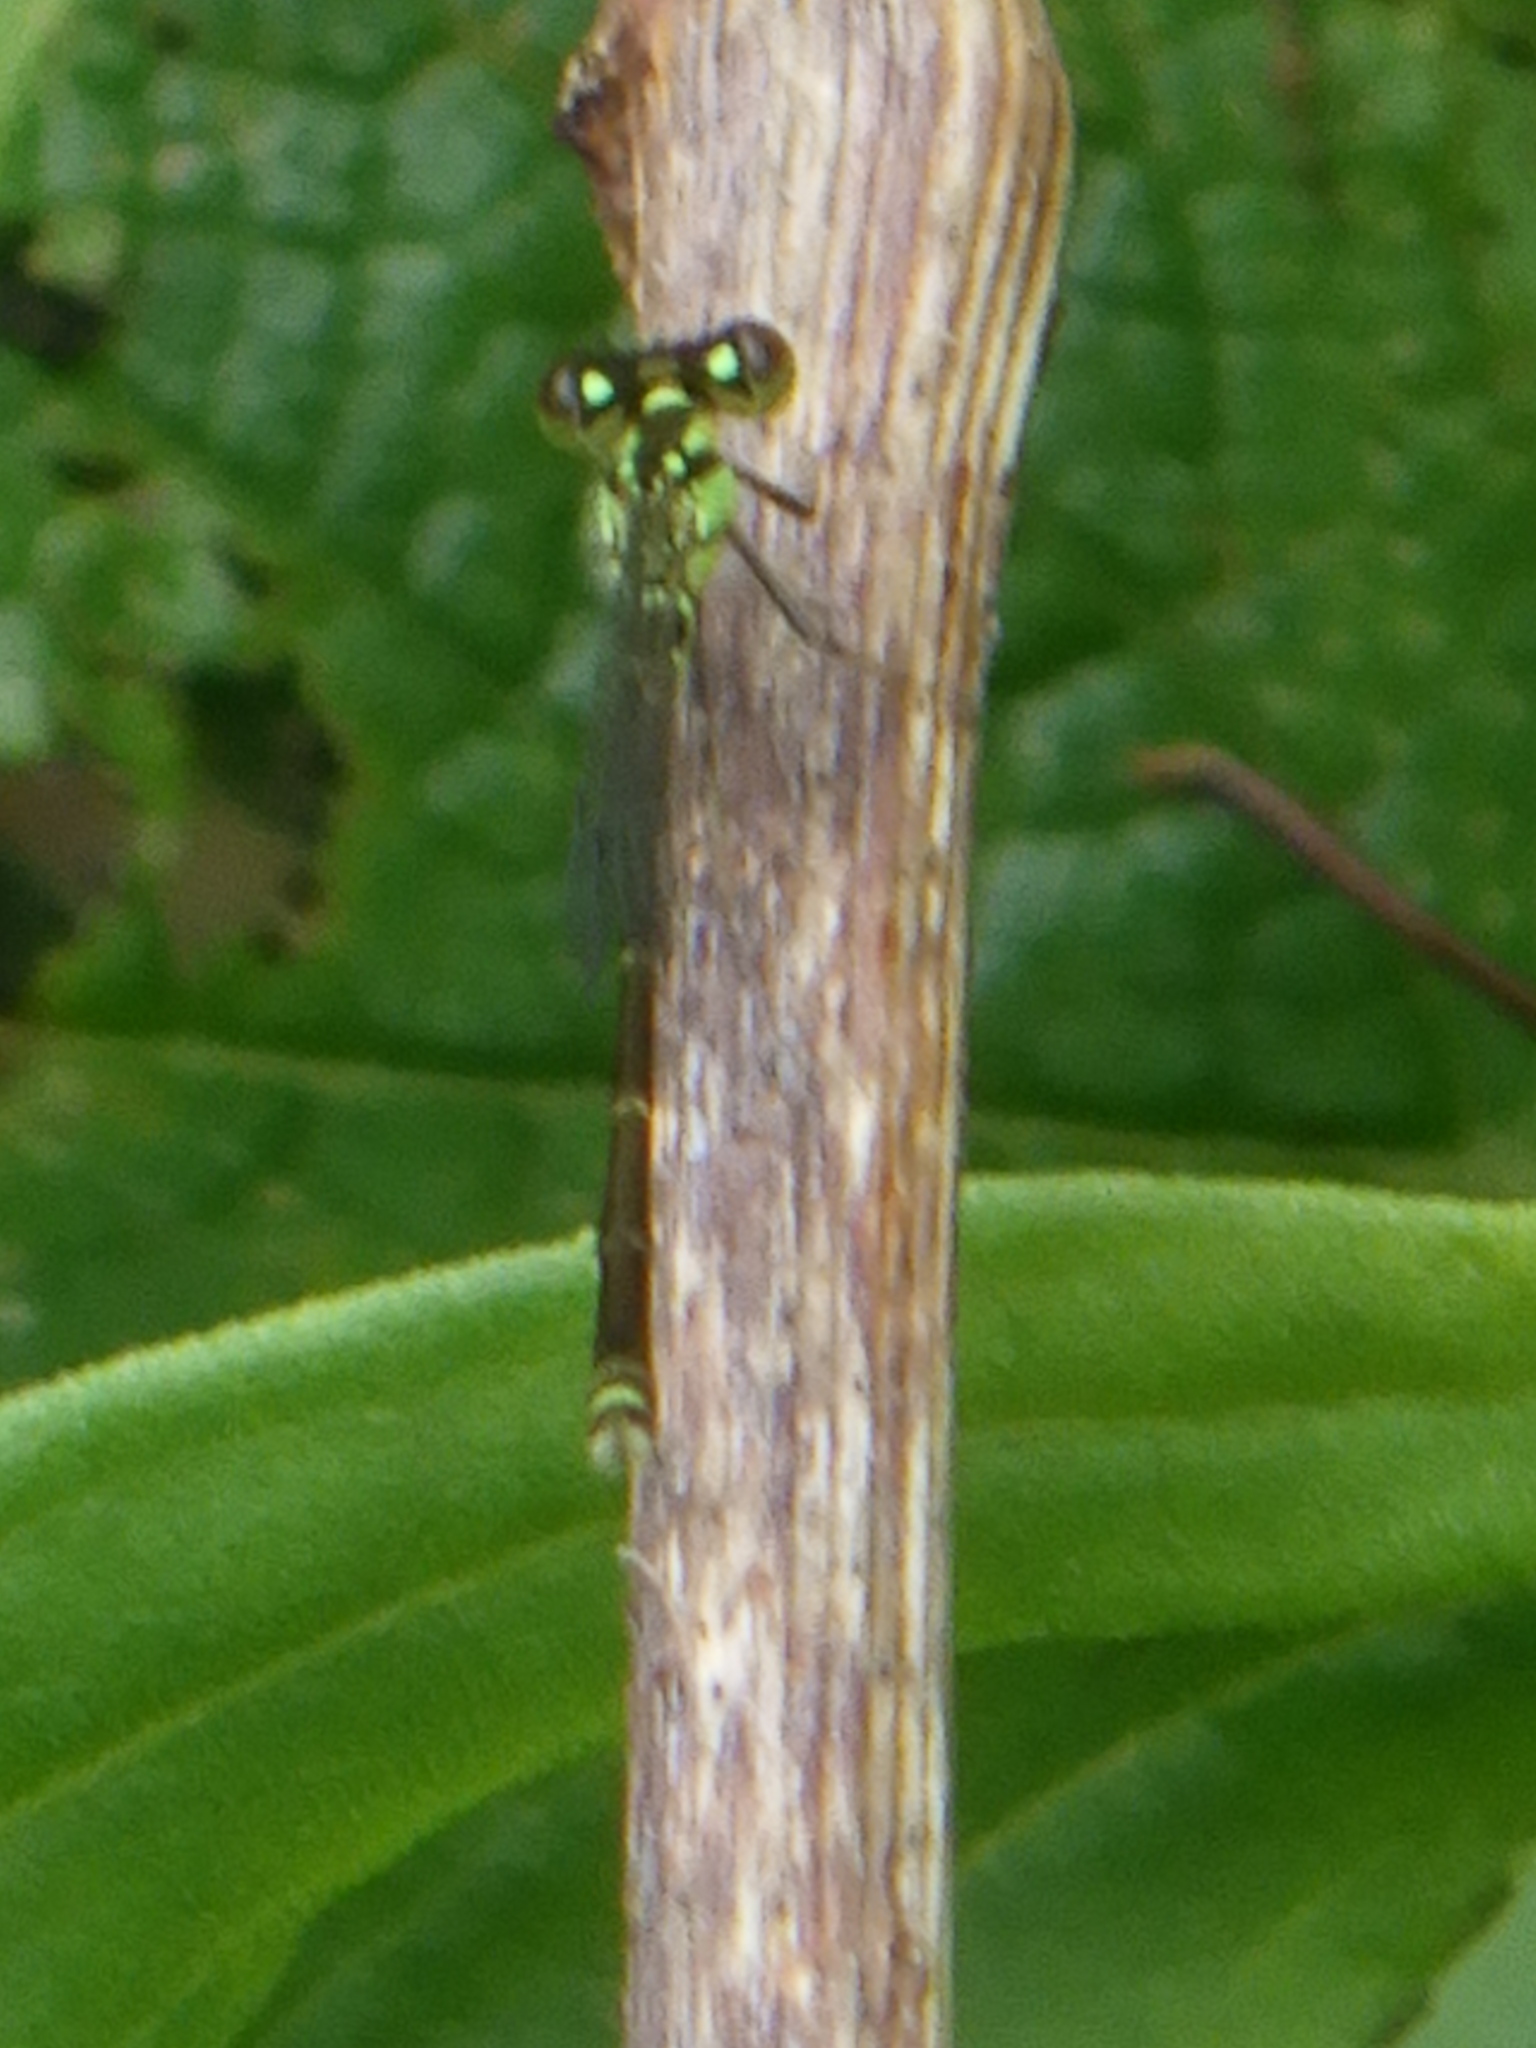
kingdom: Animalia
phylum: Arthropoda
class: Insecta
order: Odonata
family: Coenagrionidae
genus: Ischnura
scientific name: Ischnura posita
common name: Fragile forktail
